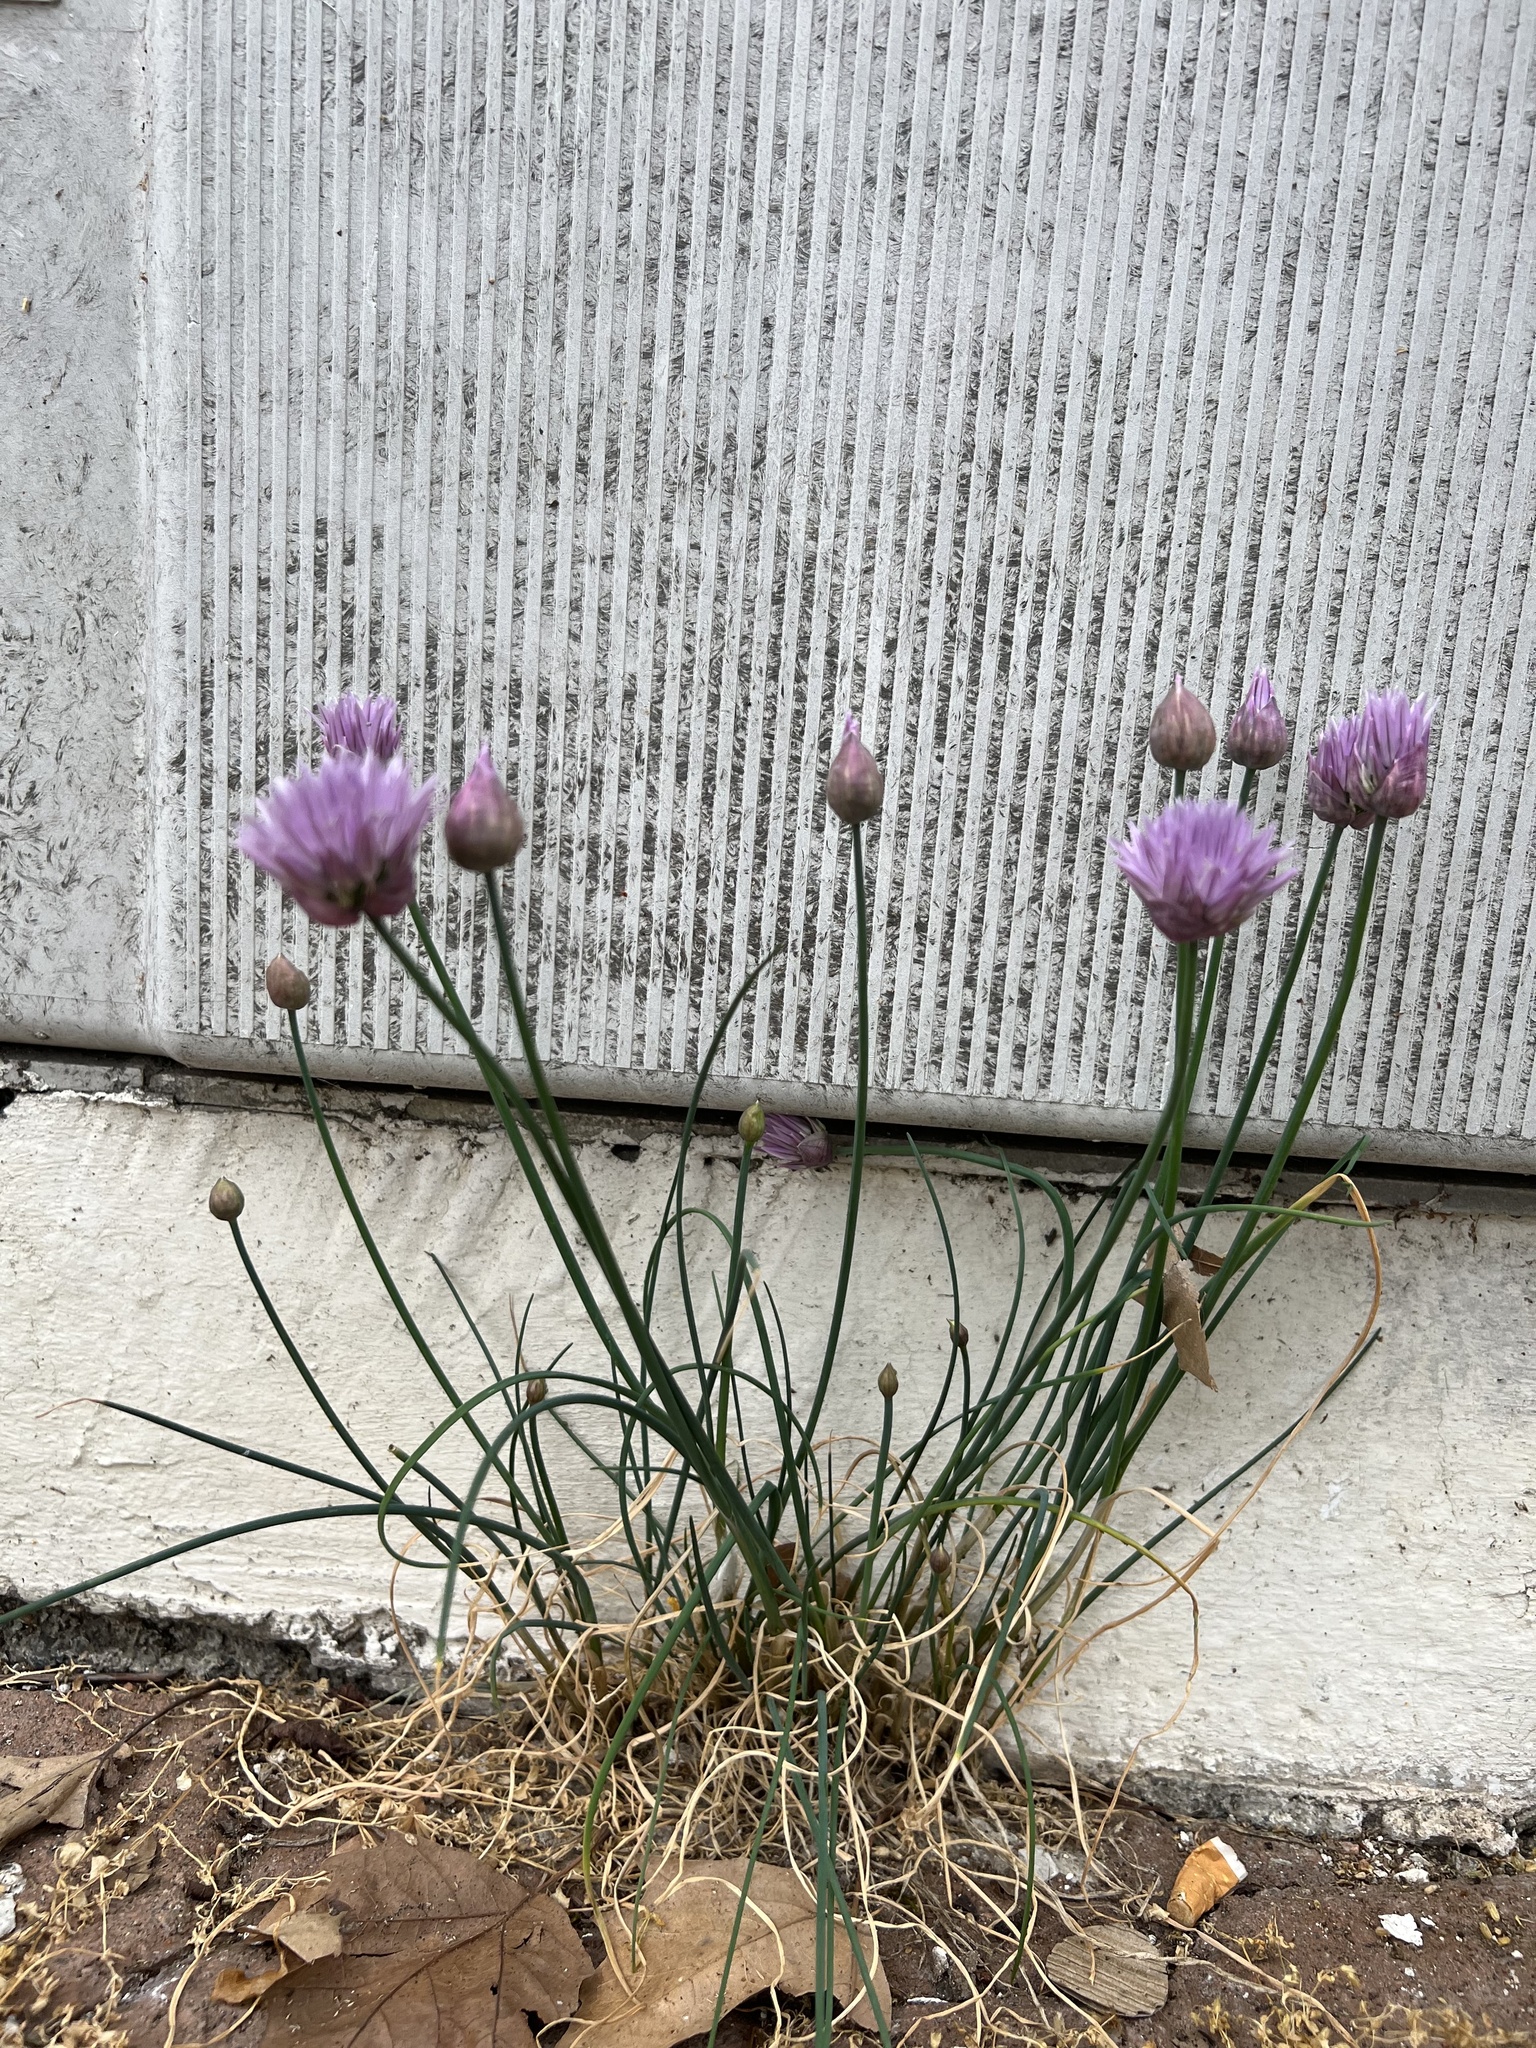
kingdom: Plantae
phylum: Tracheophyta
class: Liliopsida
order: Asparagales
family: Amaryllidaceae
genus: Allium
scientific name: Allium schoenoprasum
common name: Chives
